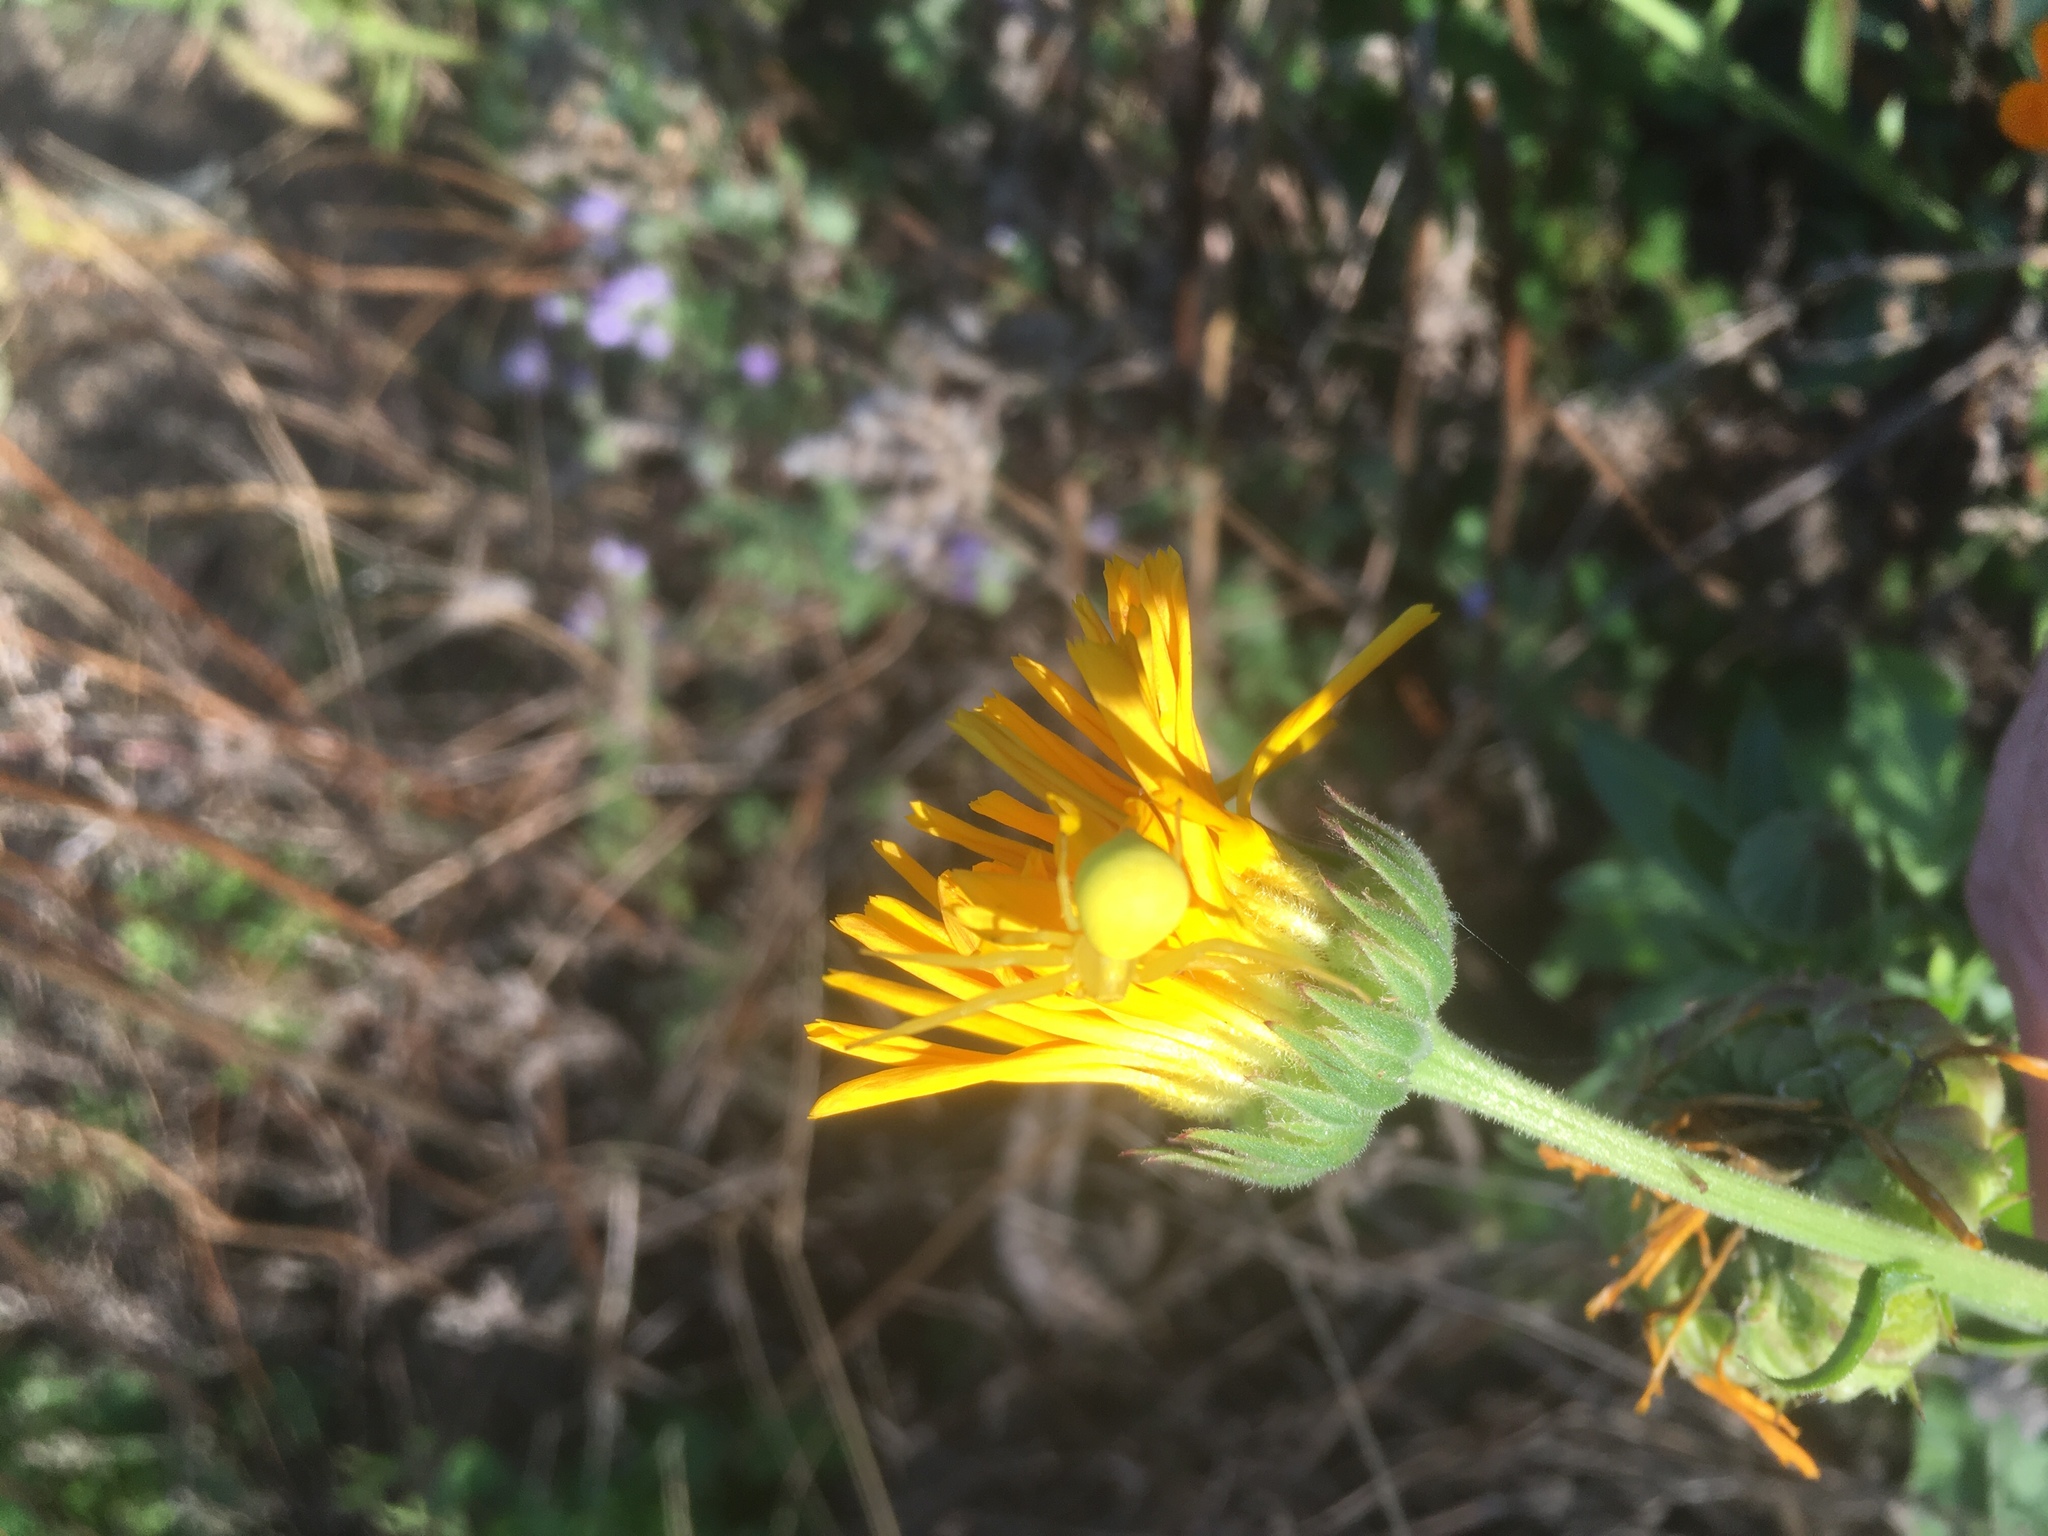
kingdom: Animalia
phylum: Arthropoda
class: Arachnida
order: Araneae
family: Thomisidae
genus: Misumena
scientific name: Misumena vatia
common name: Goldenrod crab spider
